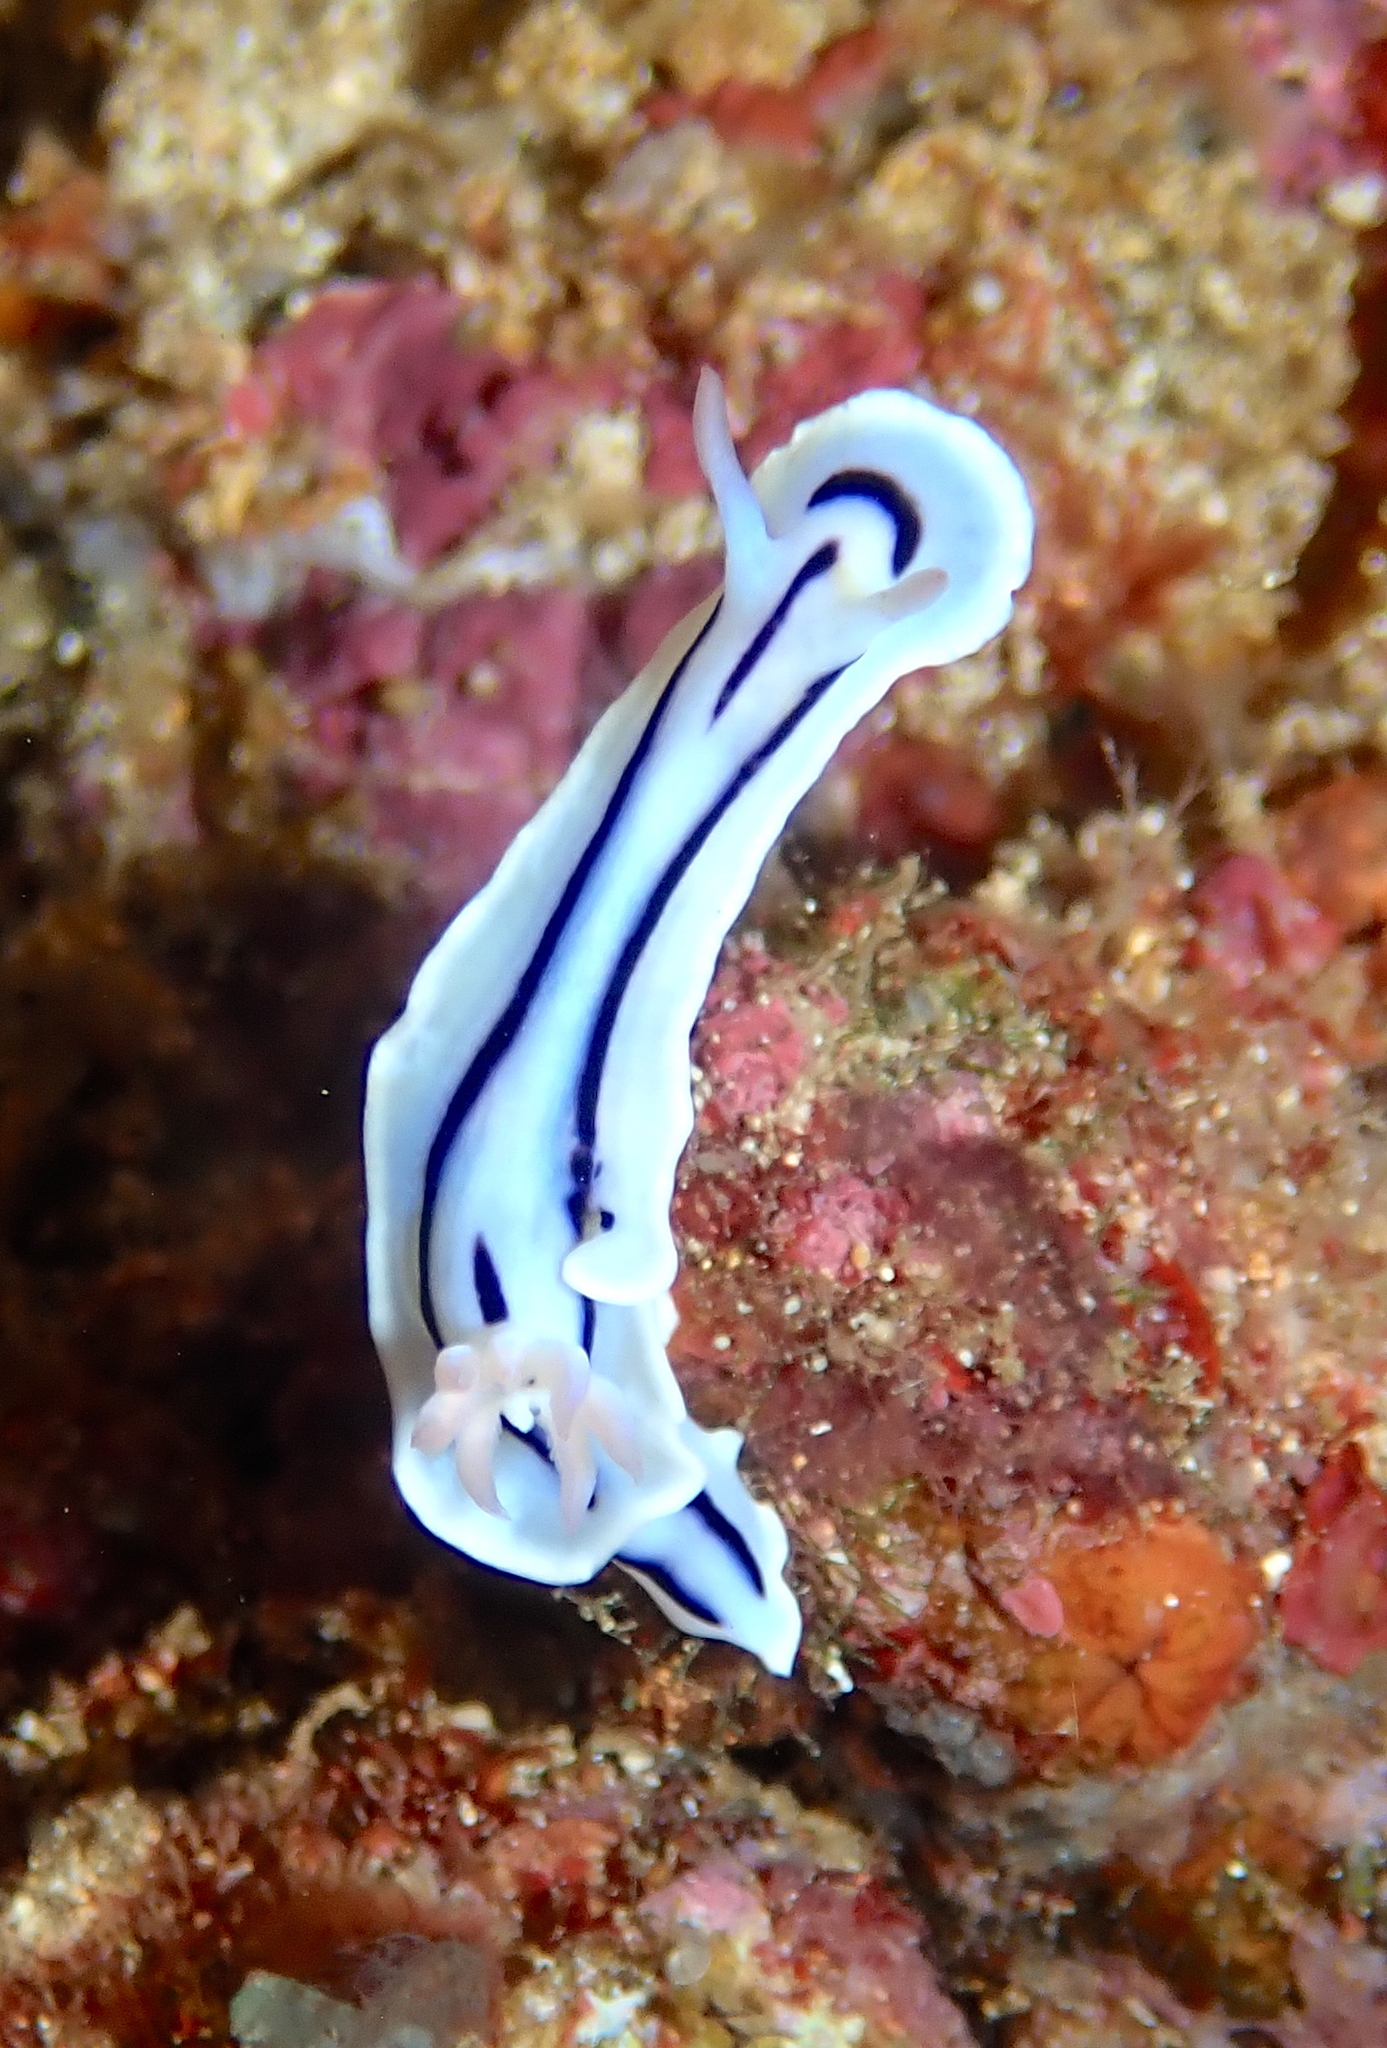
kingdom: Animalia
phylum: Mollusca
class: Gastropoda
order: Nudibranchia
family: Chromodorididae
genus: Chromodoris
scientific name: Chromodoris lochi
